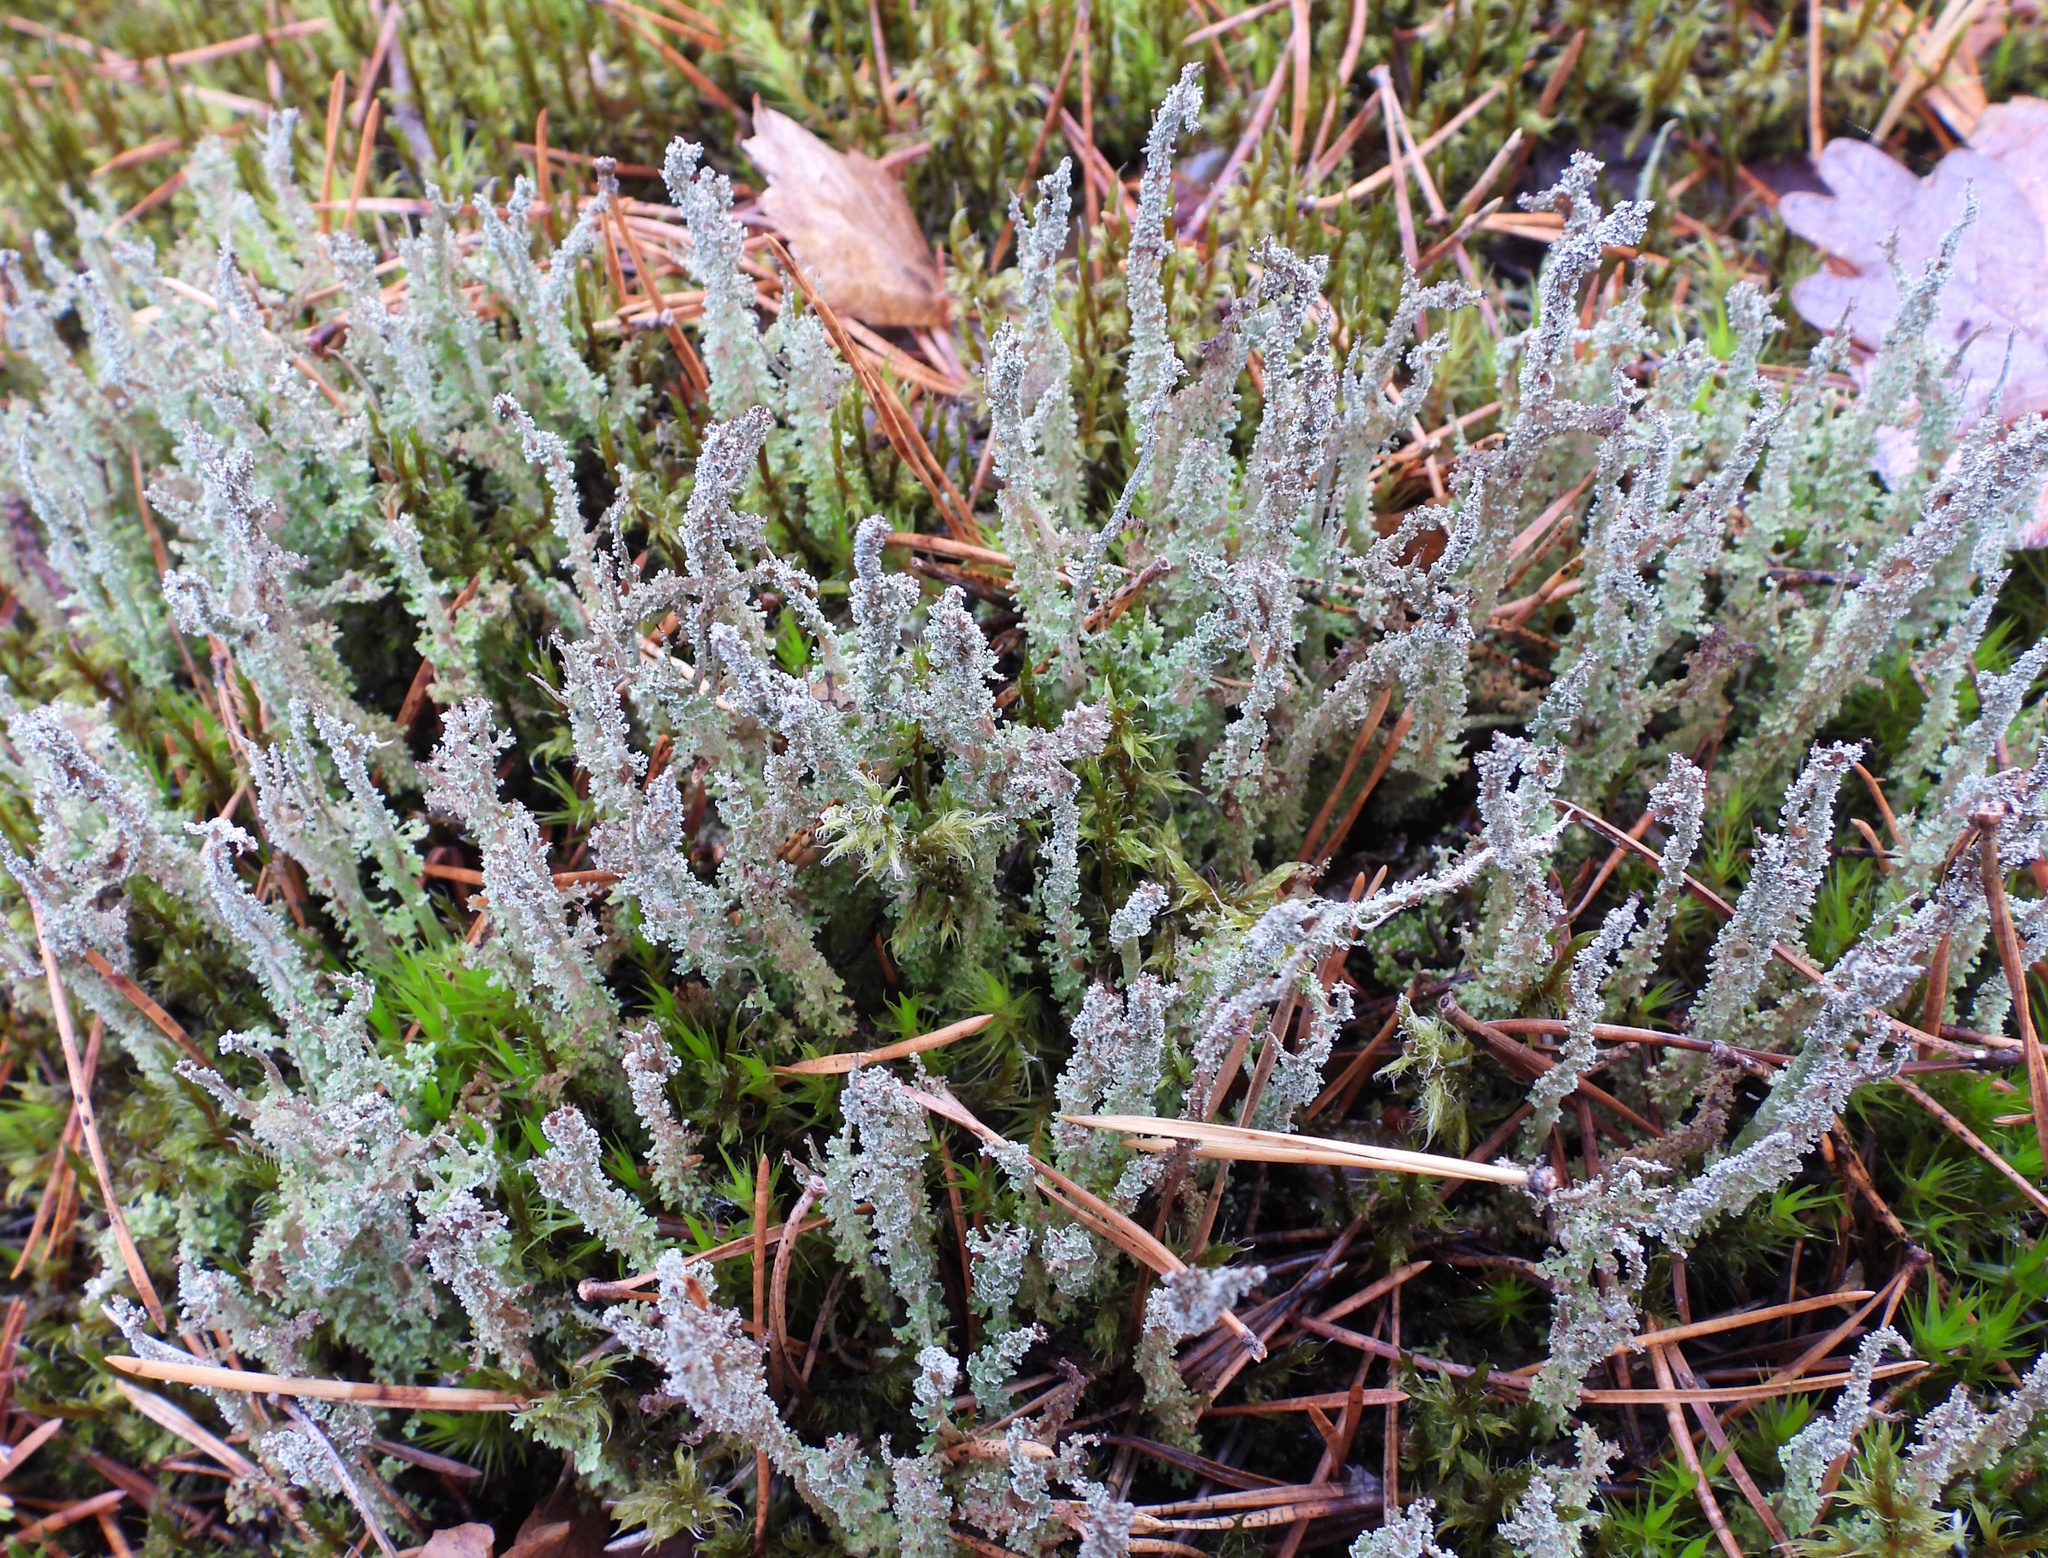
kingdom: Fungi
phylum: Ascomycota
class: Lecanoromycetes
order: Lecanorales
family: Cladoniaceae
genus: Cladonia
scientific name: Cladonia squamosa
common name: Dragon horn
